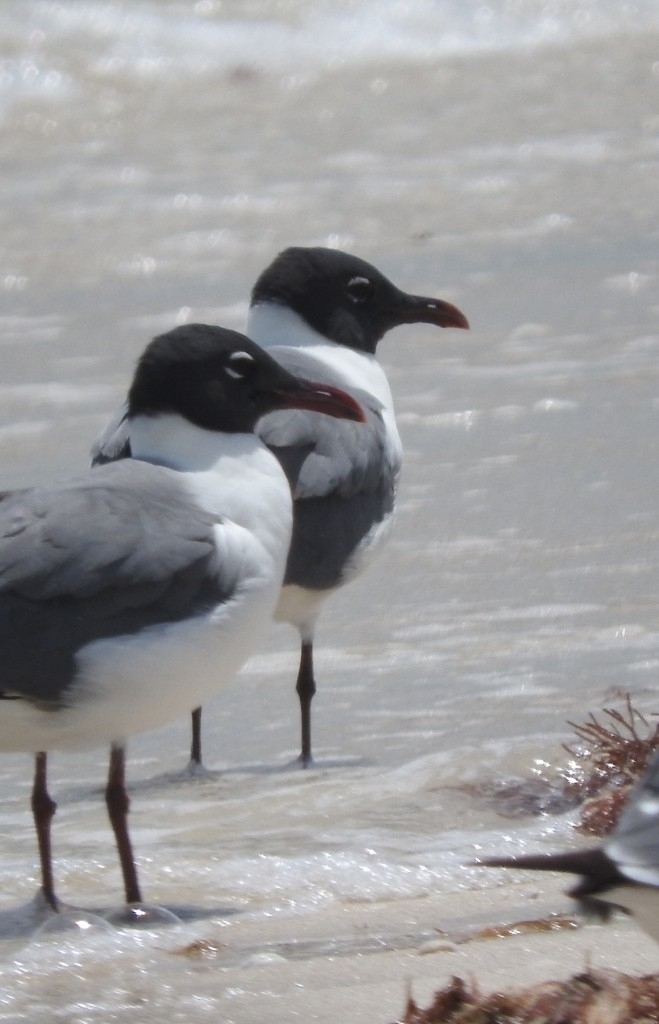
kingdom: Animalia
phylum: Chordata
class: Aves
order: Charadriiformes
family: Laridae
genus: Leucophaeus
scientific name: Leucophaeus atricilla
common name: Laughing gull
